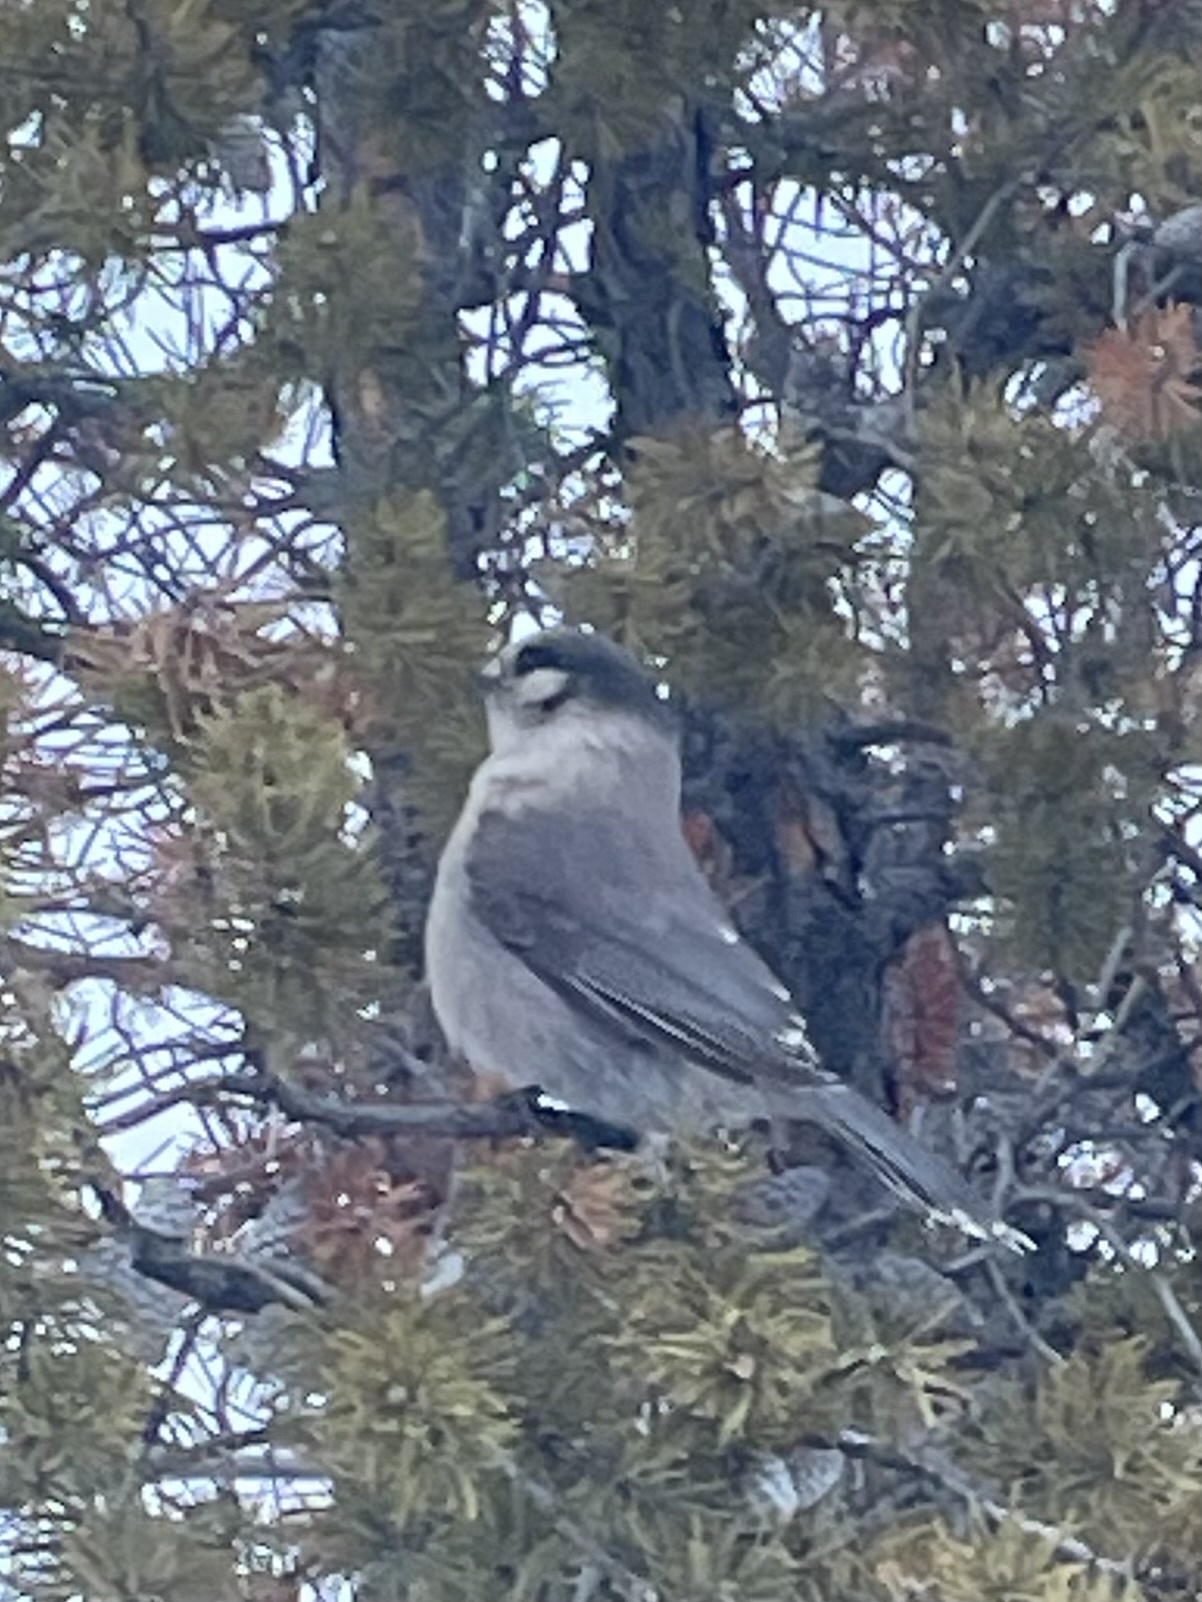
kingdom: Animalia
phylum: Chordata
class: Aves
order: Passeriformes
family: Corvidae
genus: Perisoreus
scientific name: Perisoreus canadensis
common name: Gray jay
